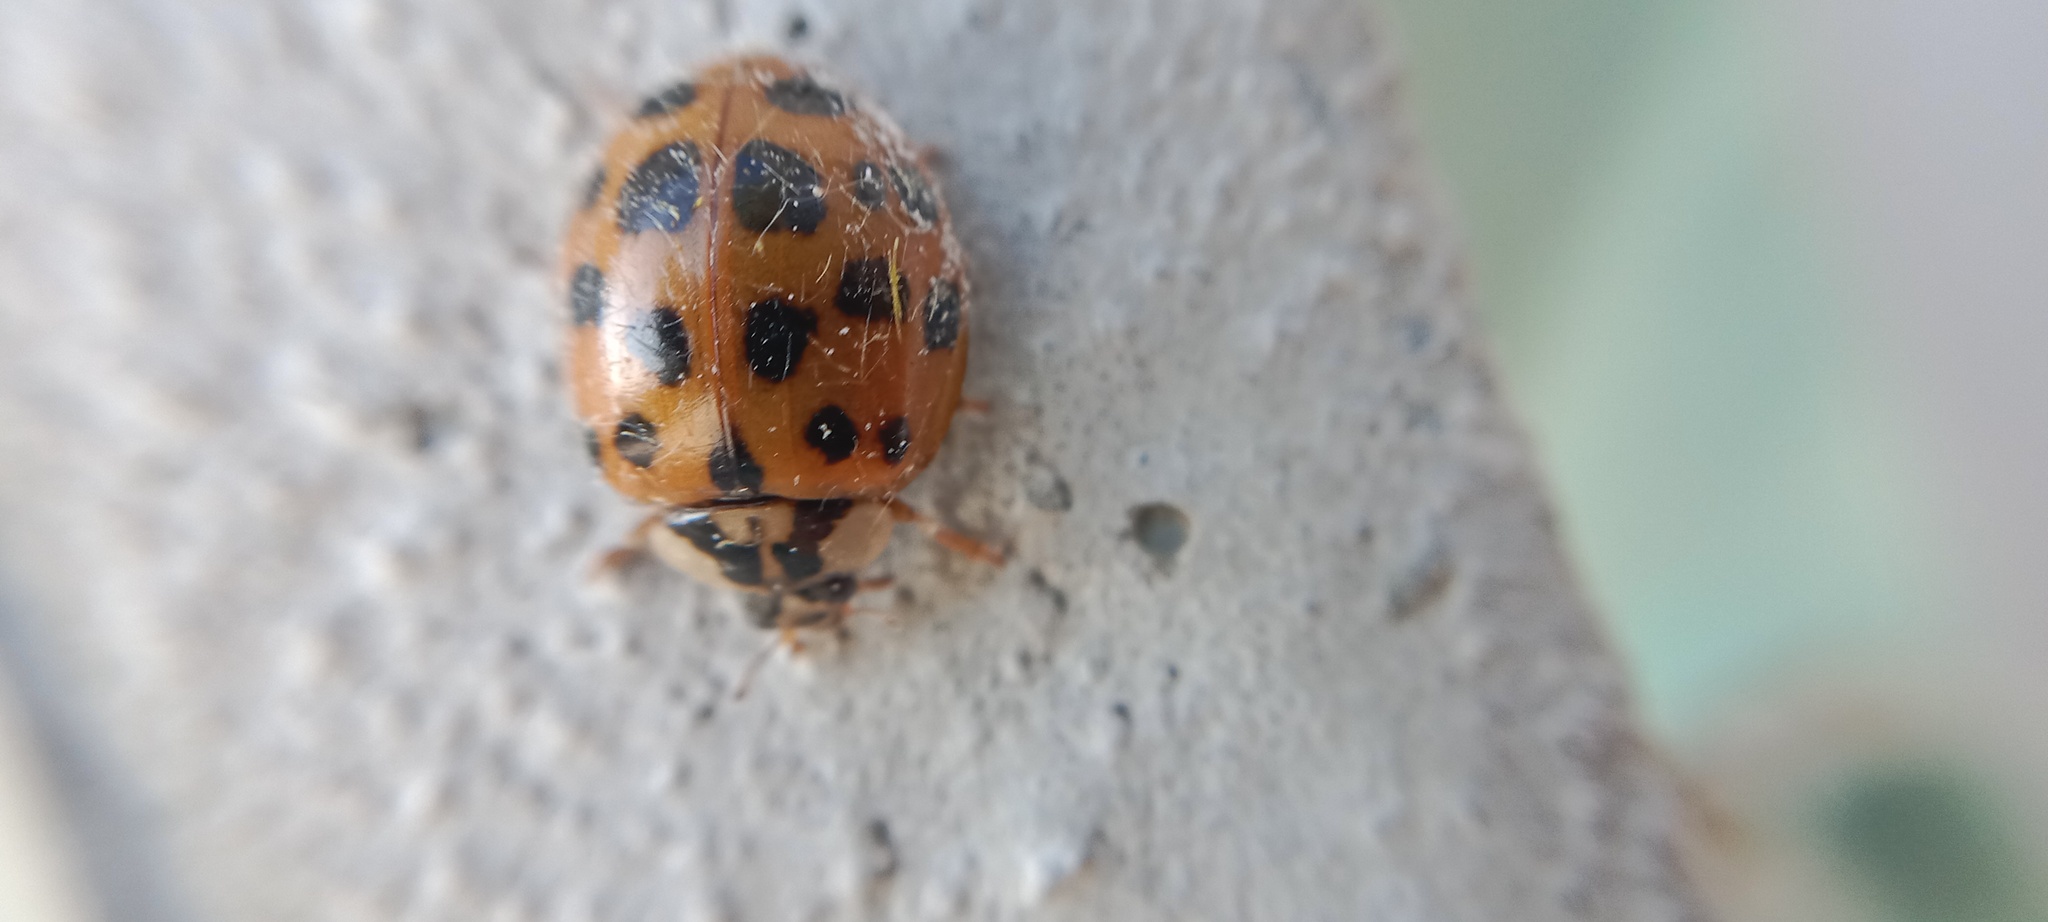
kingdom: Animalia
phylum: Arthropoda
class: Insecta
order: Coleoptera
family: Coccinellidae
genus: Harmonia
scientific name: Harmonia axyridis
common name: Harlequin ladybird
